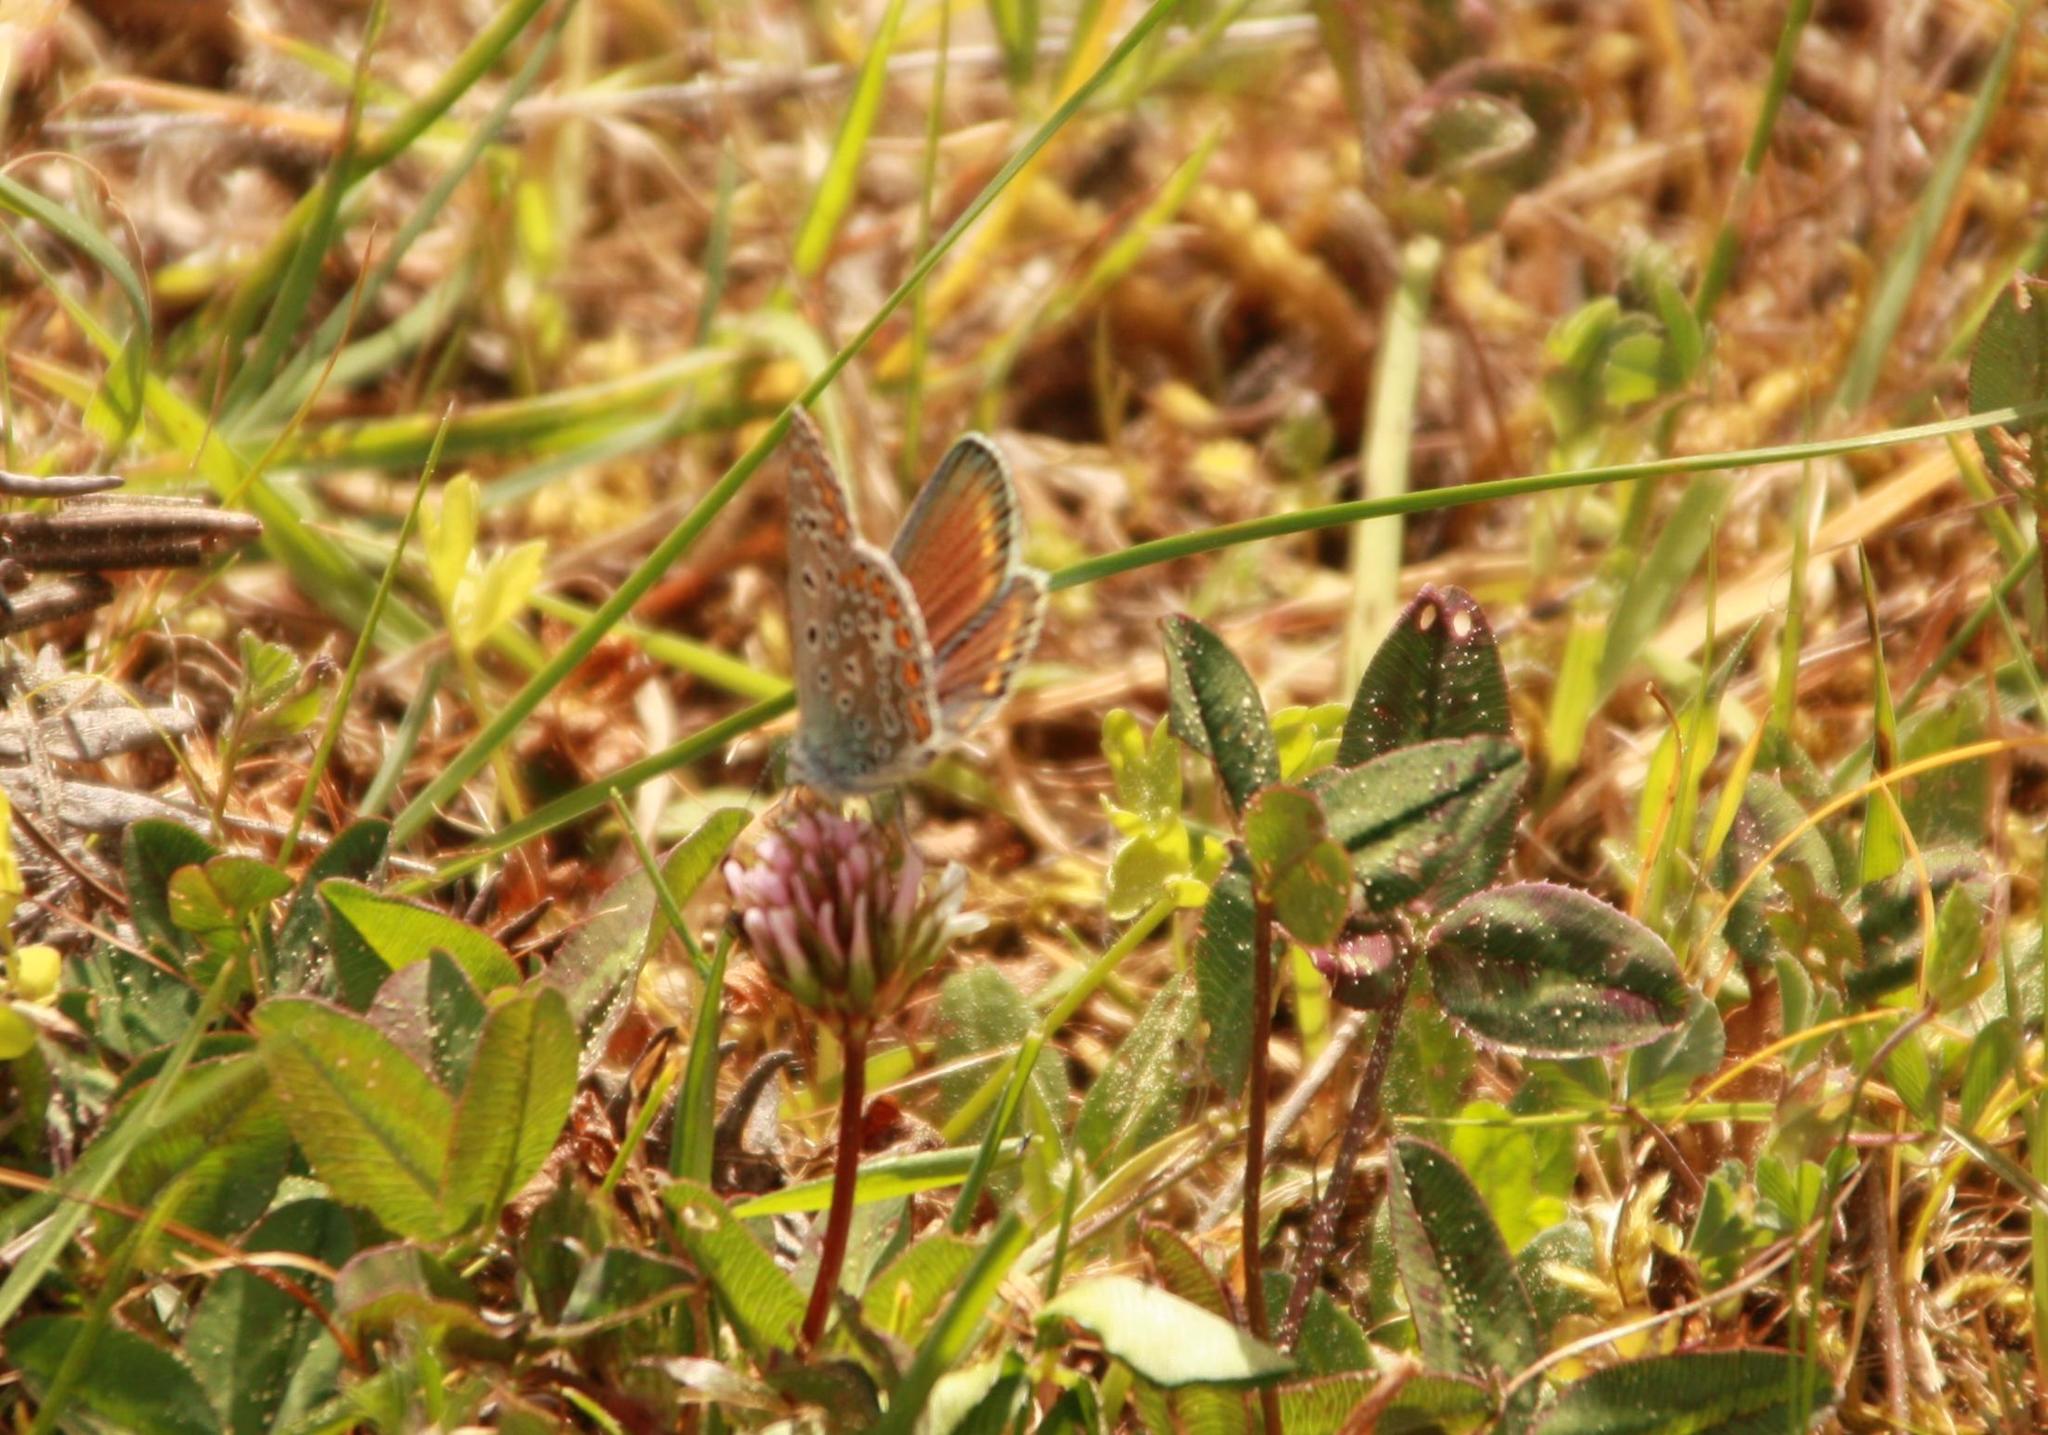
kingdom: Animalia
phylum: Arthropoda
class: Insecta
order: Lepidoptera
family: Lycaenidae
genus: Polyommatus
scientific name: Polyommatus icarus
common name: Common blue
